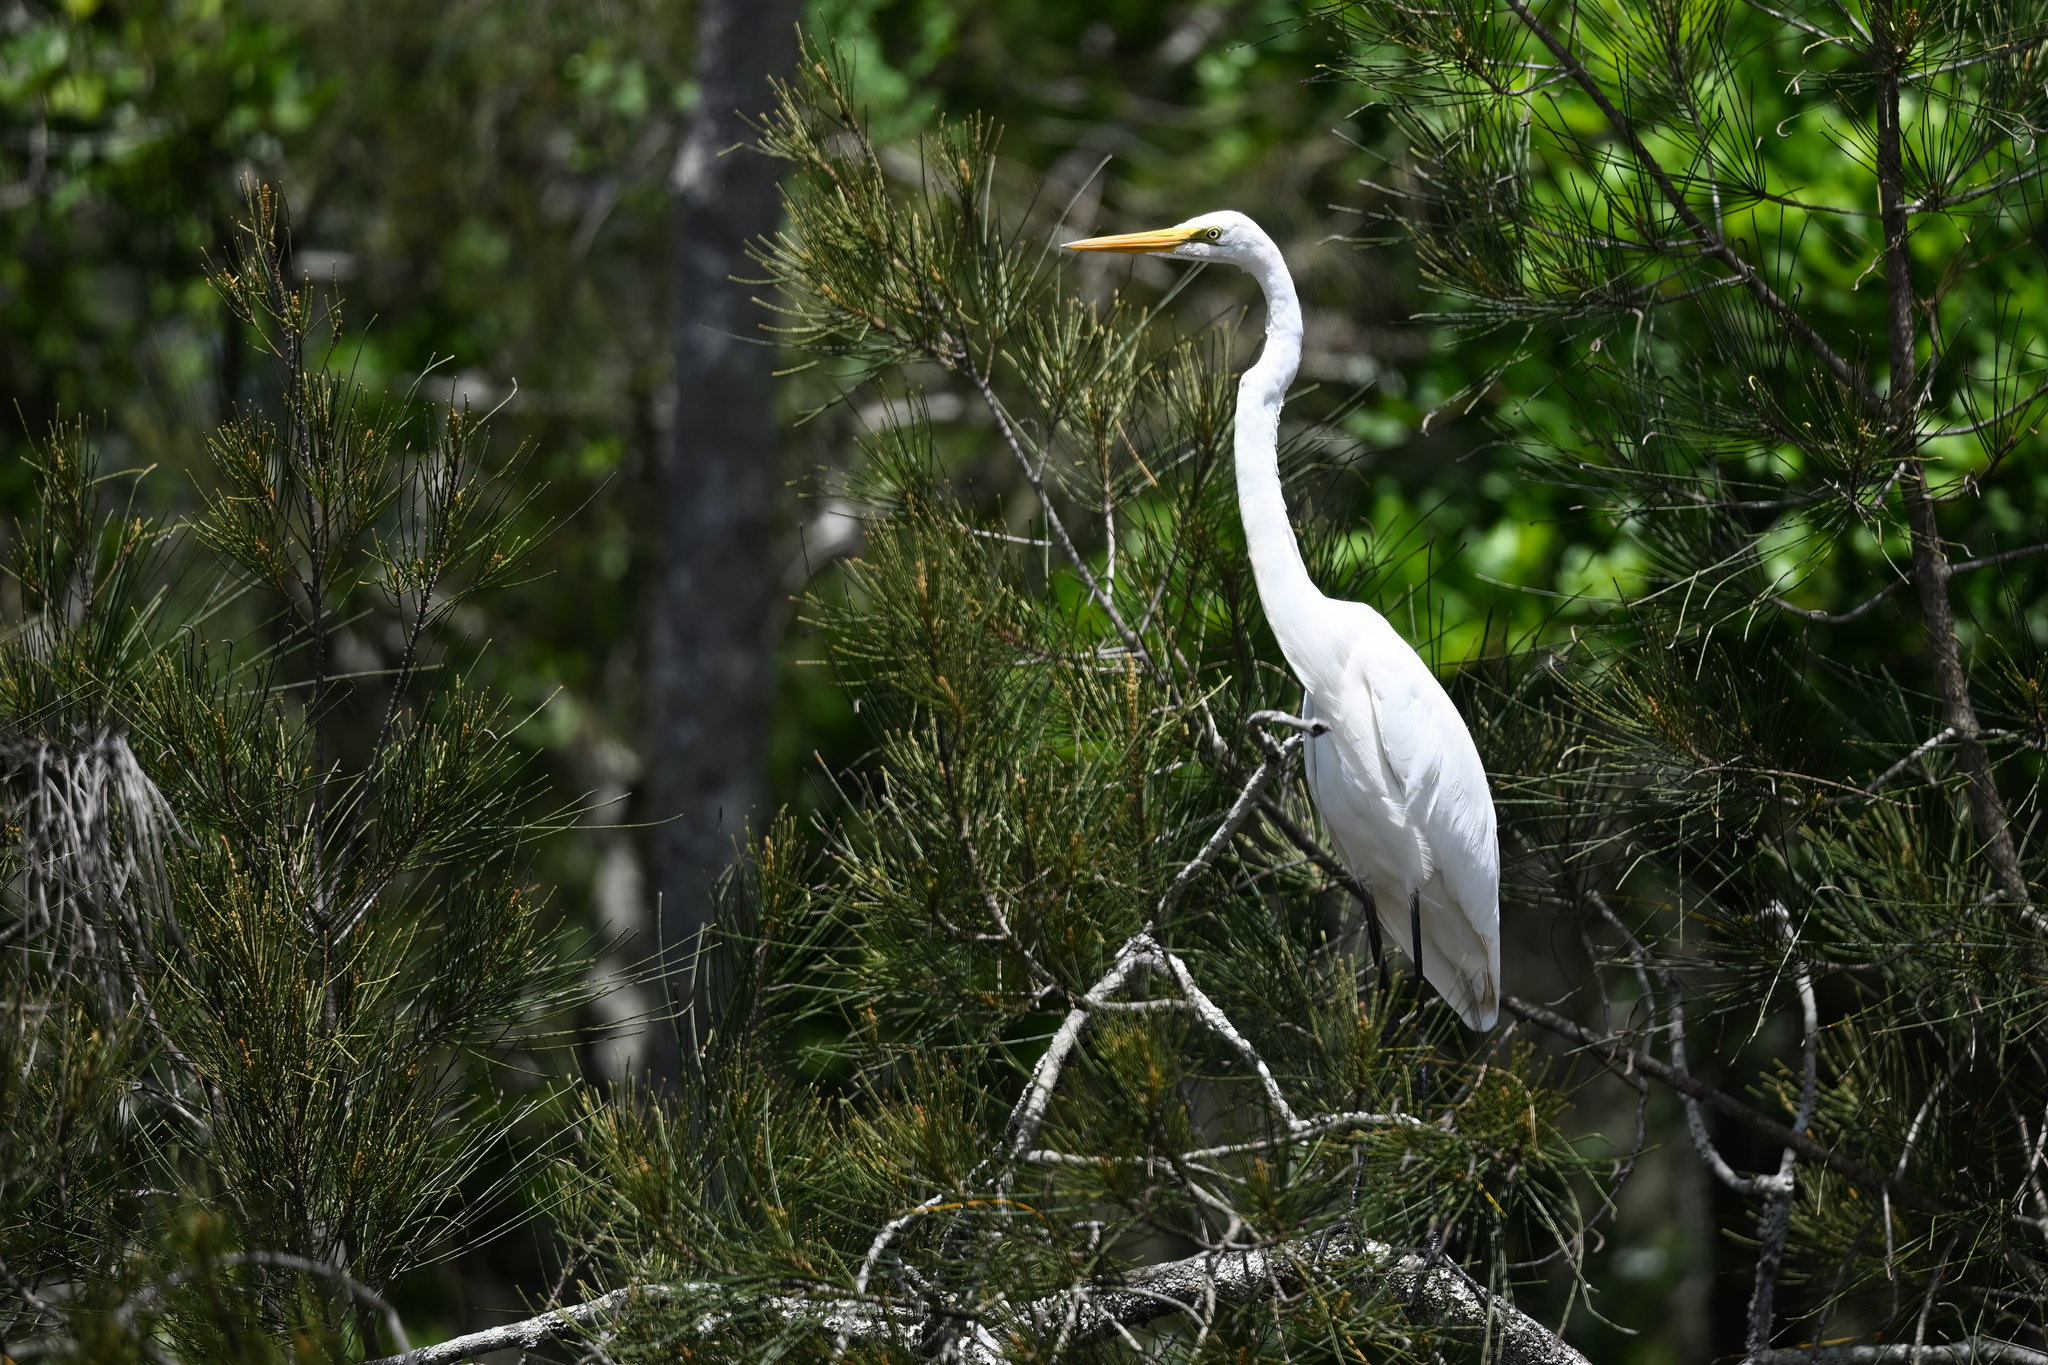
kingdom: Animalia
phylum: Chordata
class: Aves
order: Pelecaniformes
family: Ardeidae
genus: Ardea
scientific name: Ardea alba
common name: Great egret
